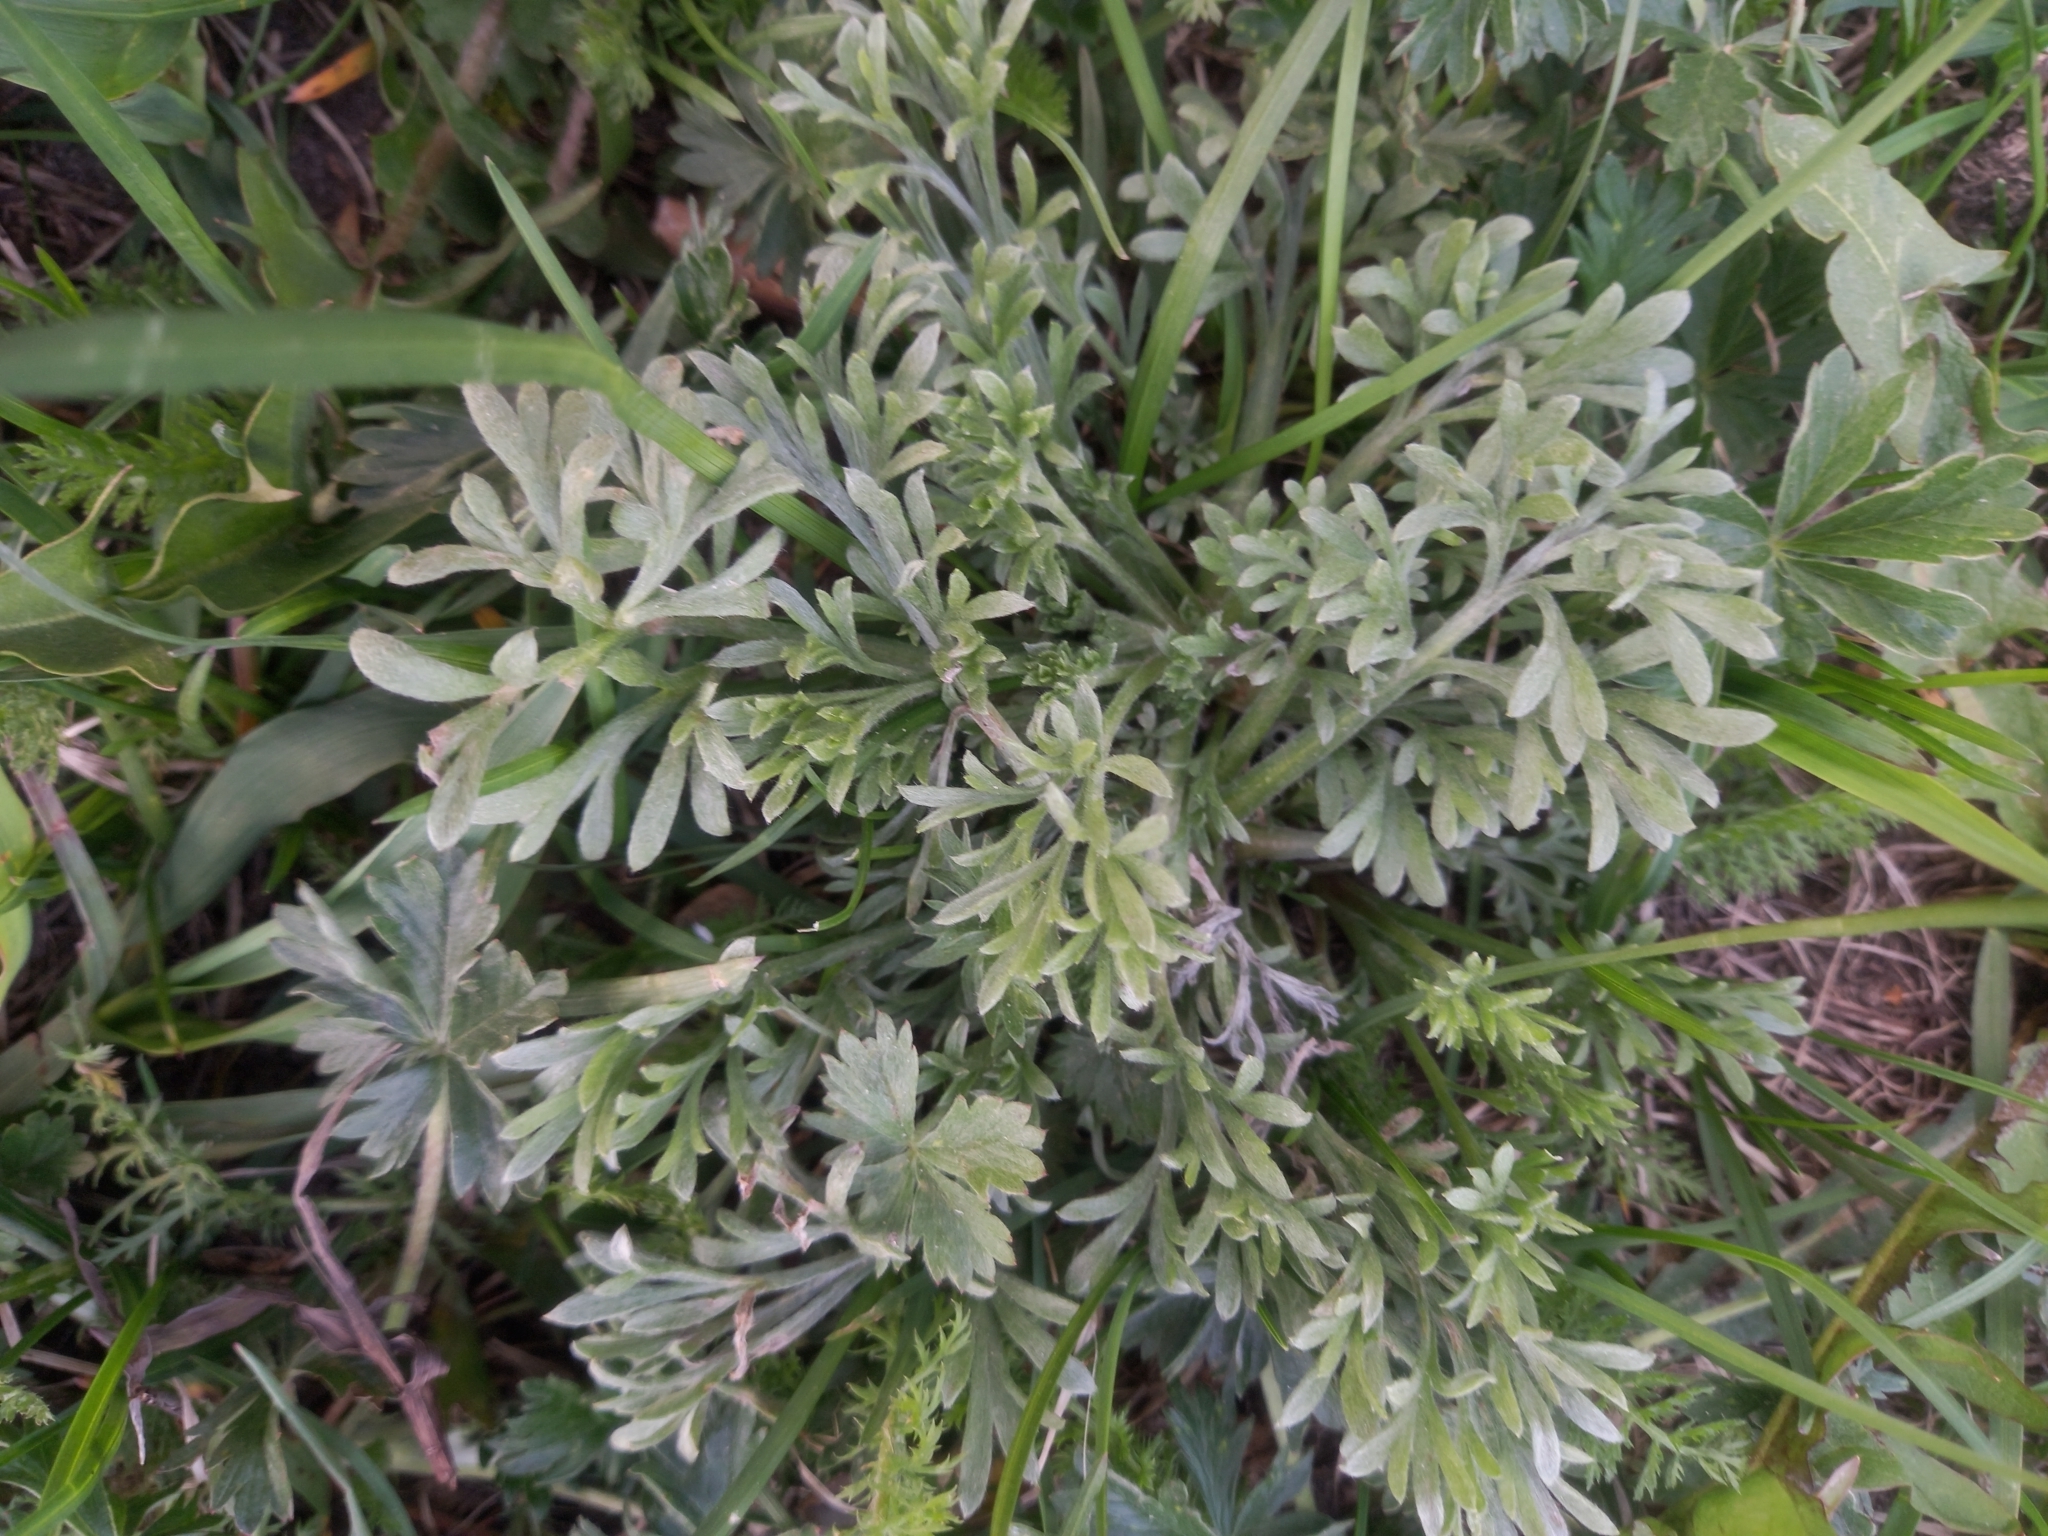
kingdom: Plantae
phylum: Tracheophyta
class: Magnoliopsida
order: Asterales
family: Asteraceae
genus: Artemisia
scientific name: Artemisia absinthium
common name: Wormwood
